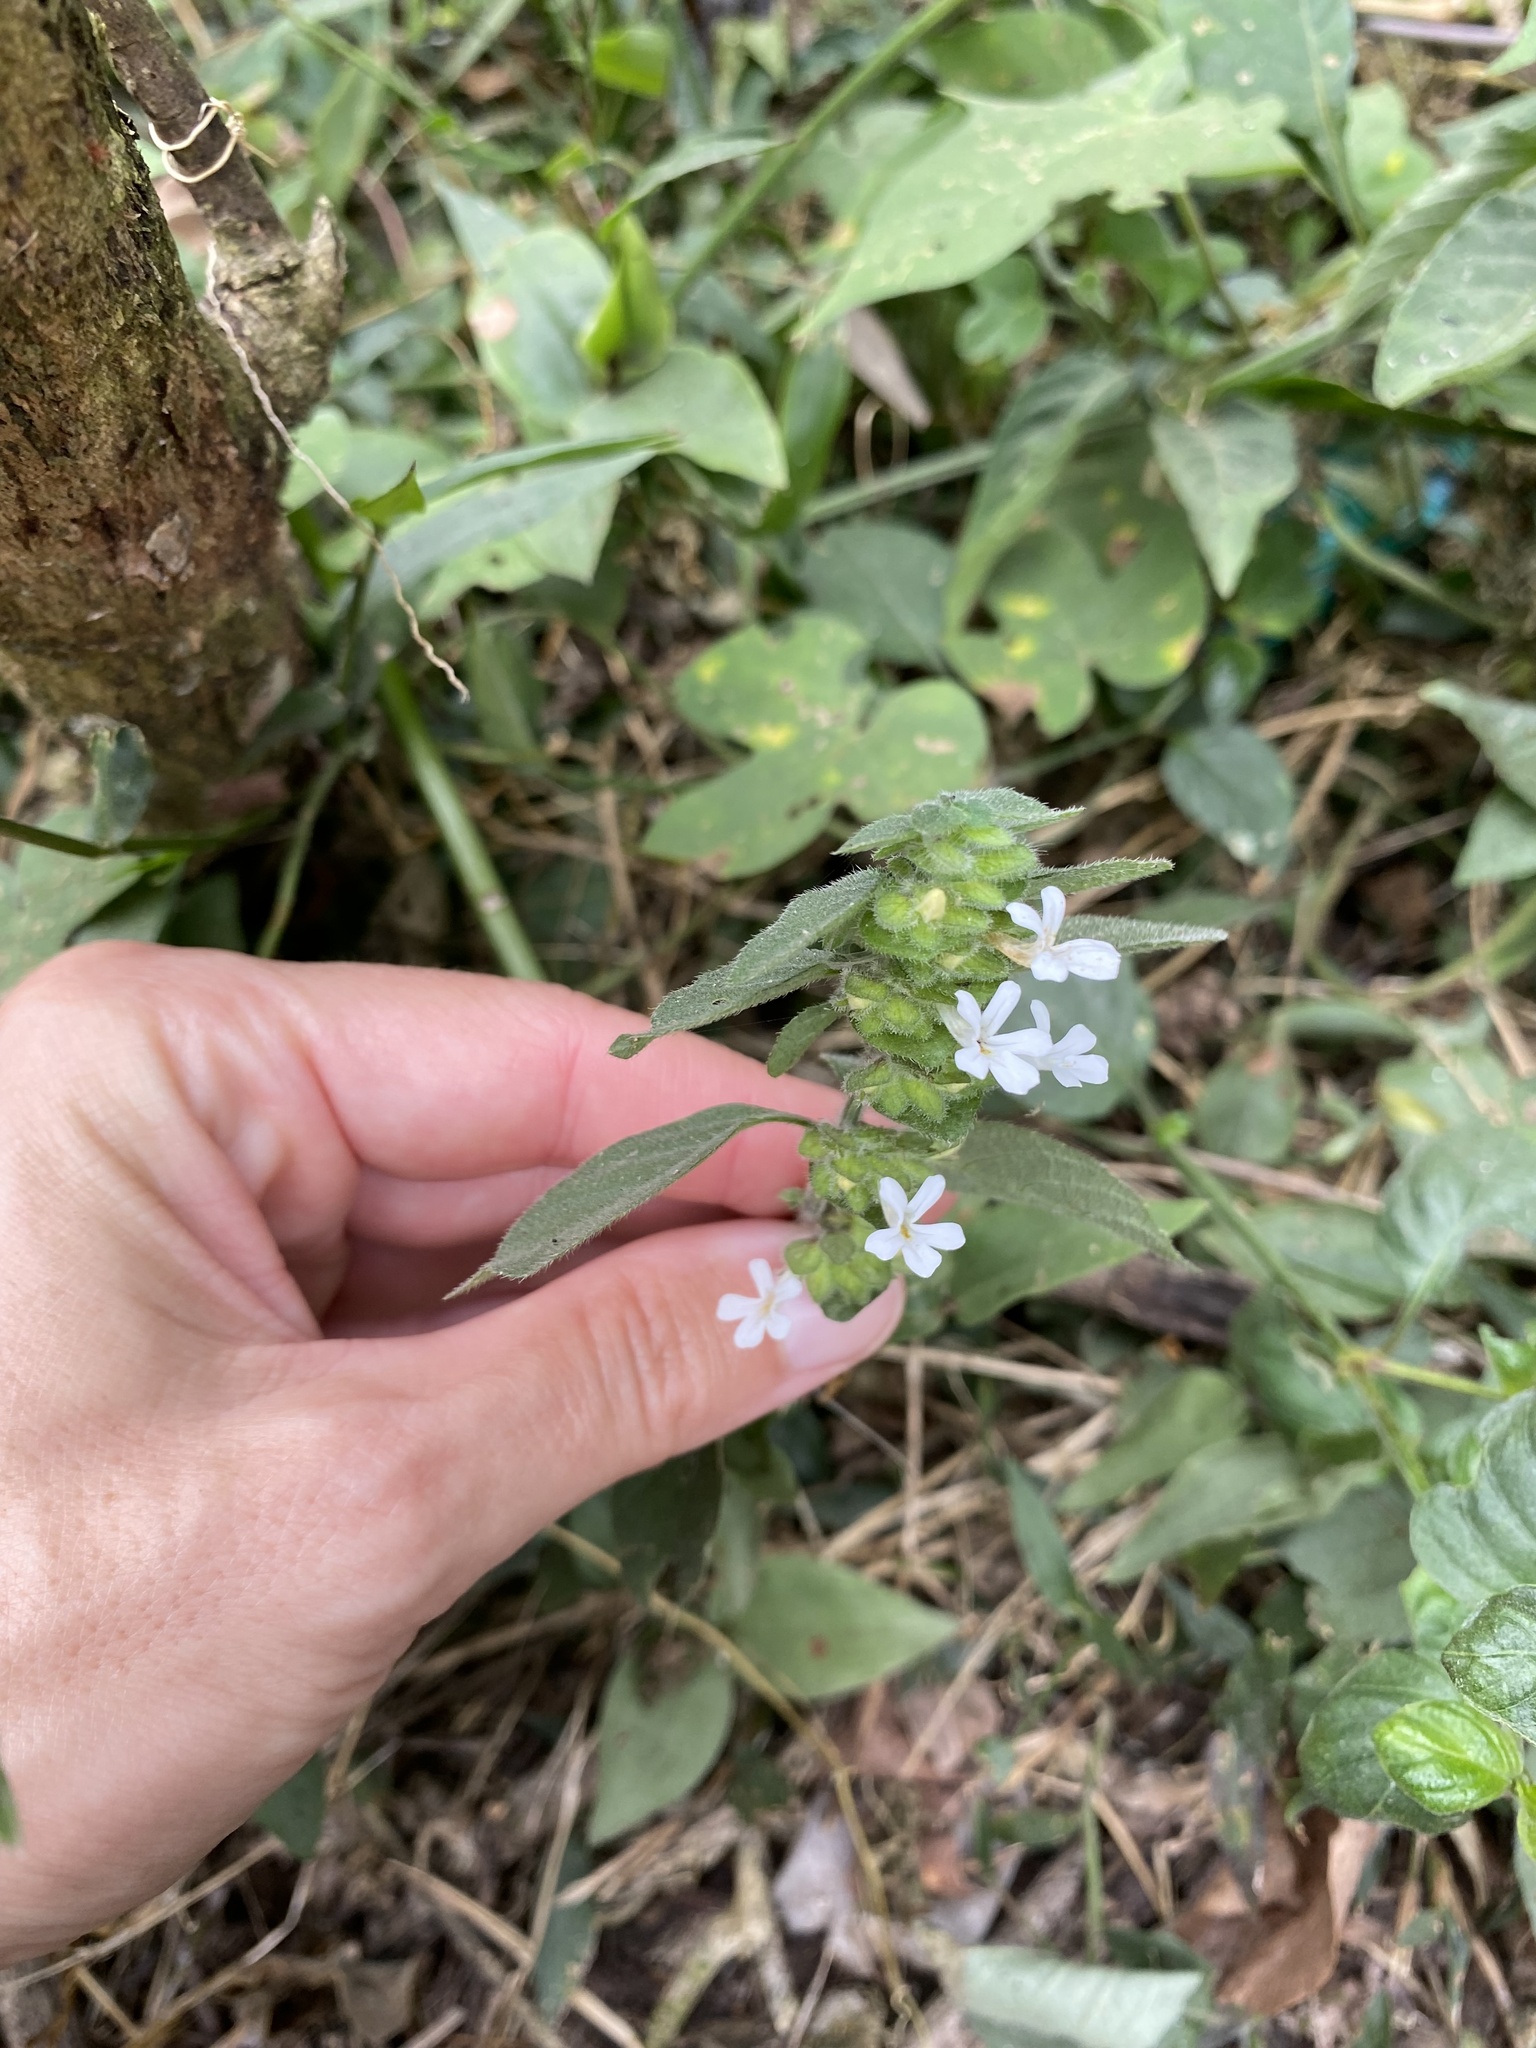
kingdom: Plantae
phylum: Tracheophyta
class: Magnoliopsida
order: Lamiales
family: Acanthaceae
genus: Phaulopsis
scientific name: Phaulopsis imbricata
